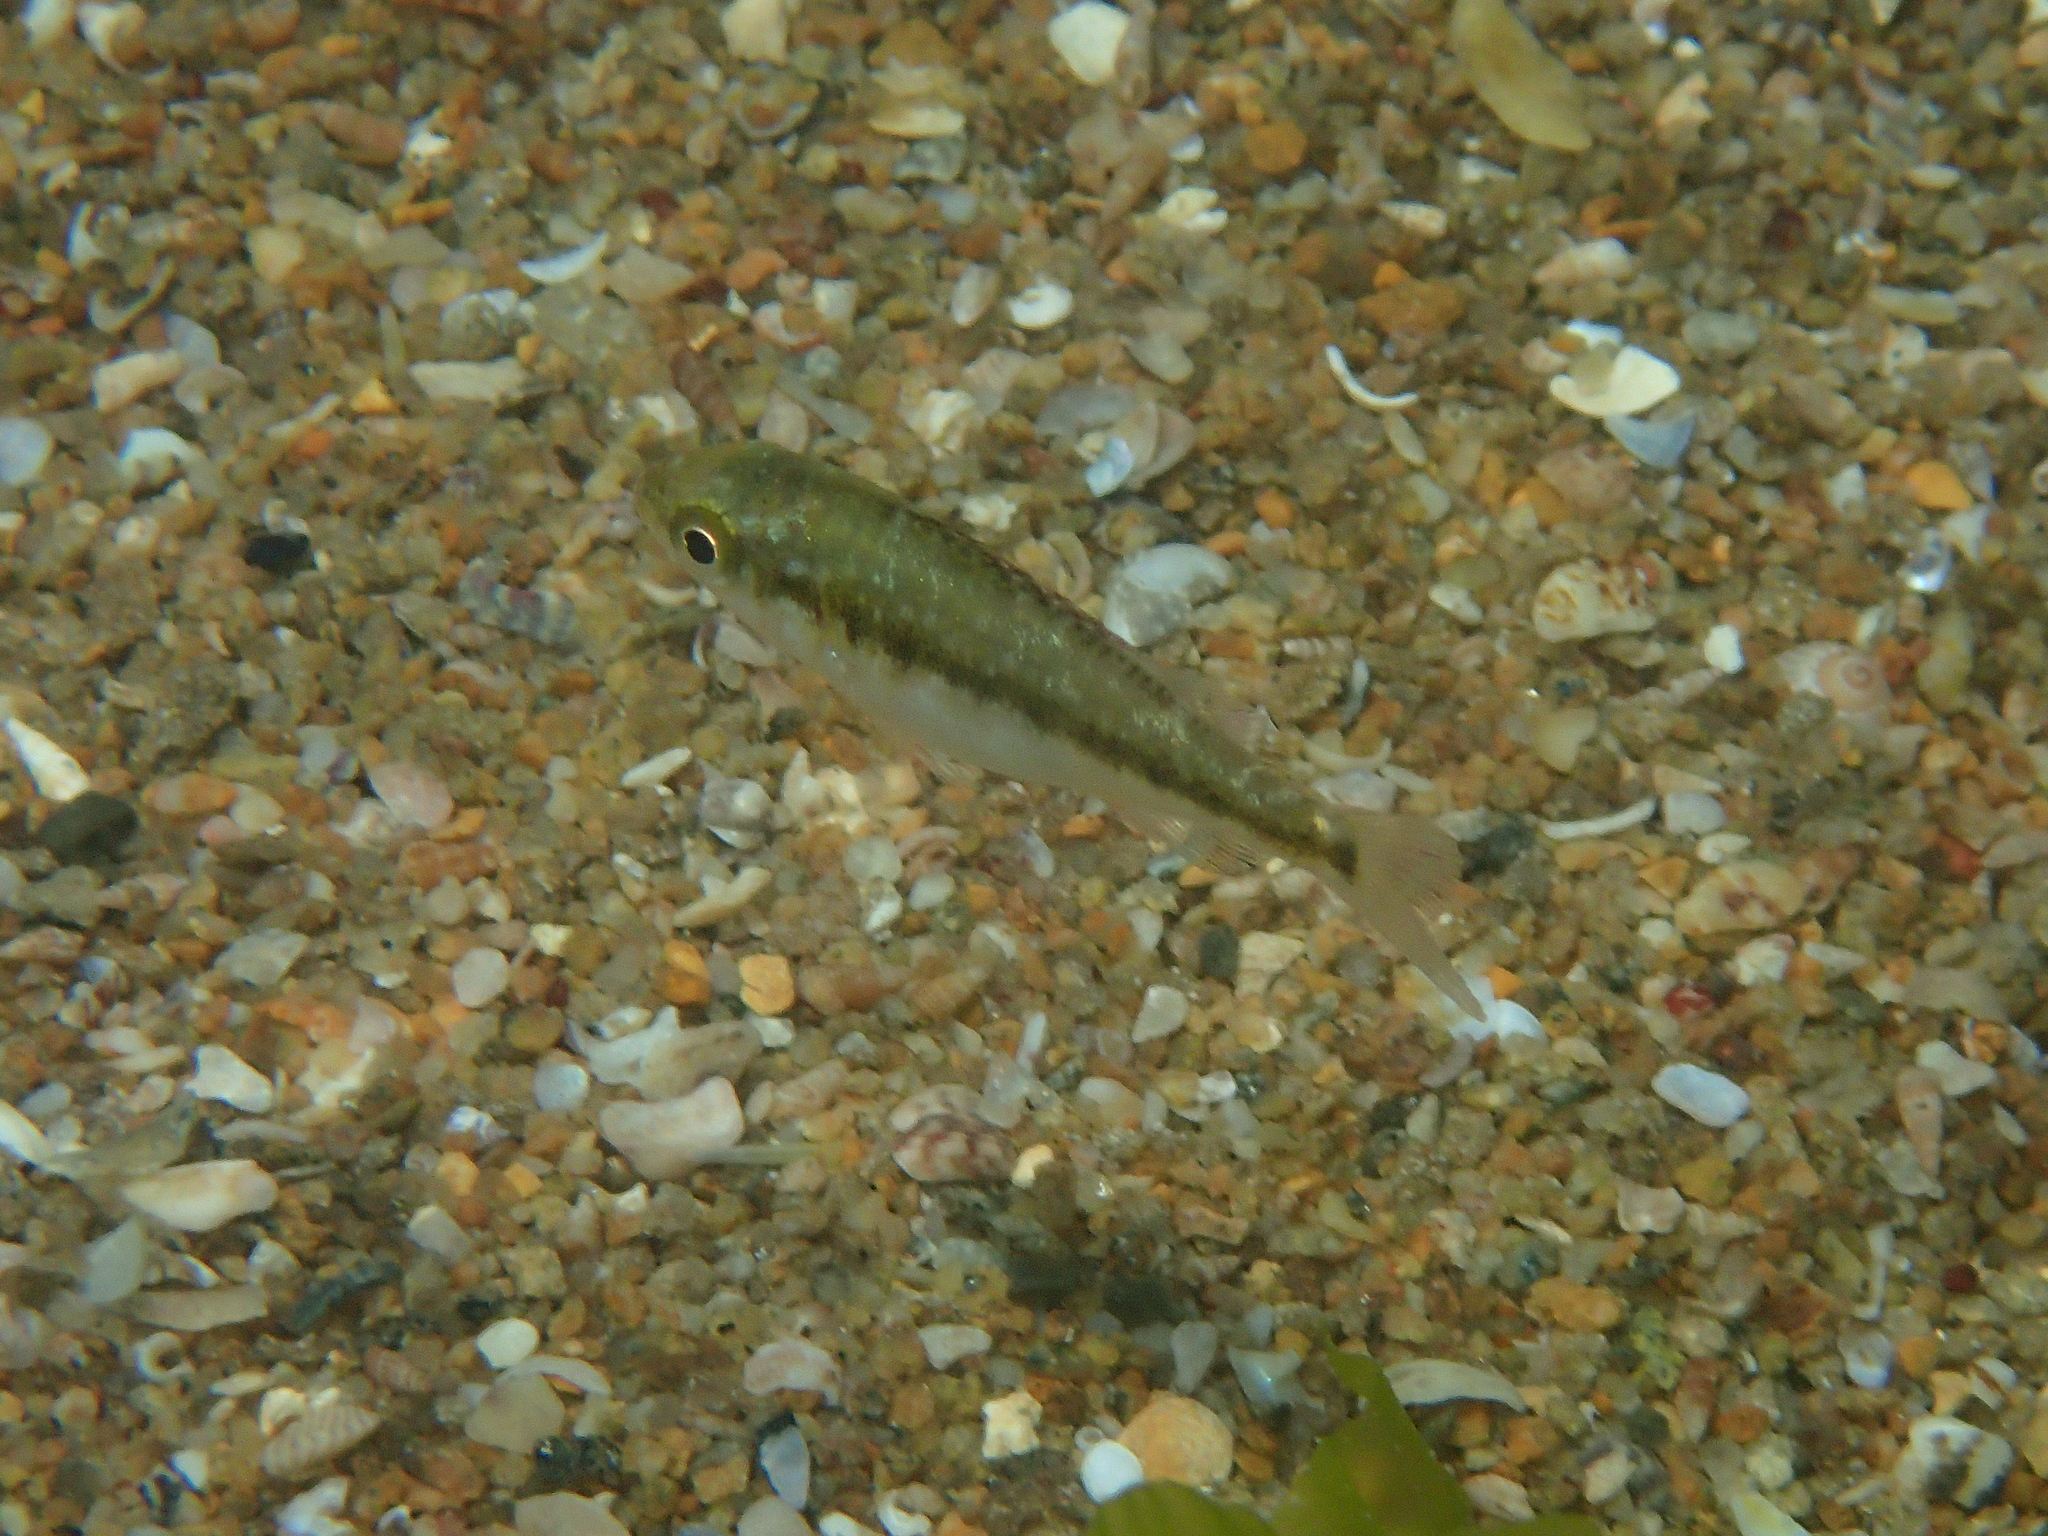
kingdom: Animalia
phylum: Chordata
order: Perciformes
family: Sparidae
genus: Spondyliosoma
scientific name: Spondyliosoma cantharus
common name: Black seabream
